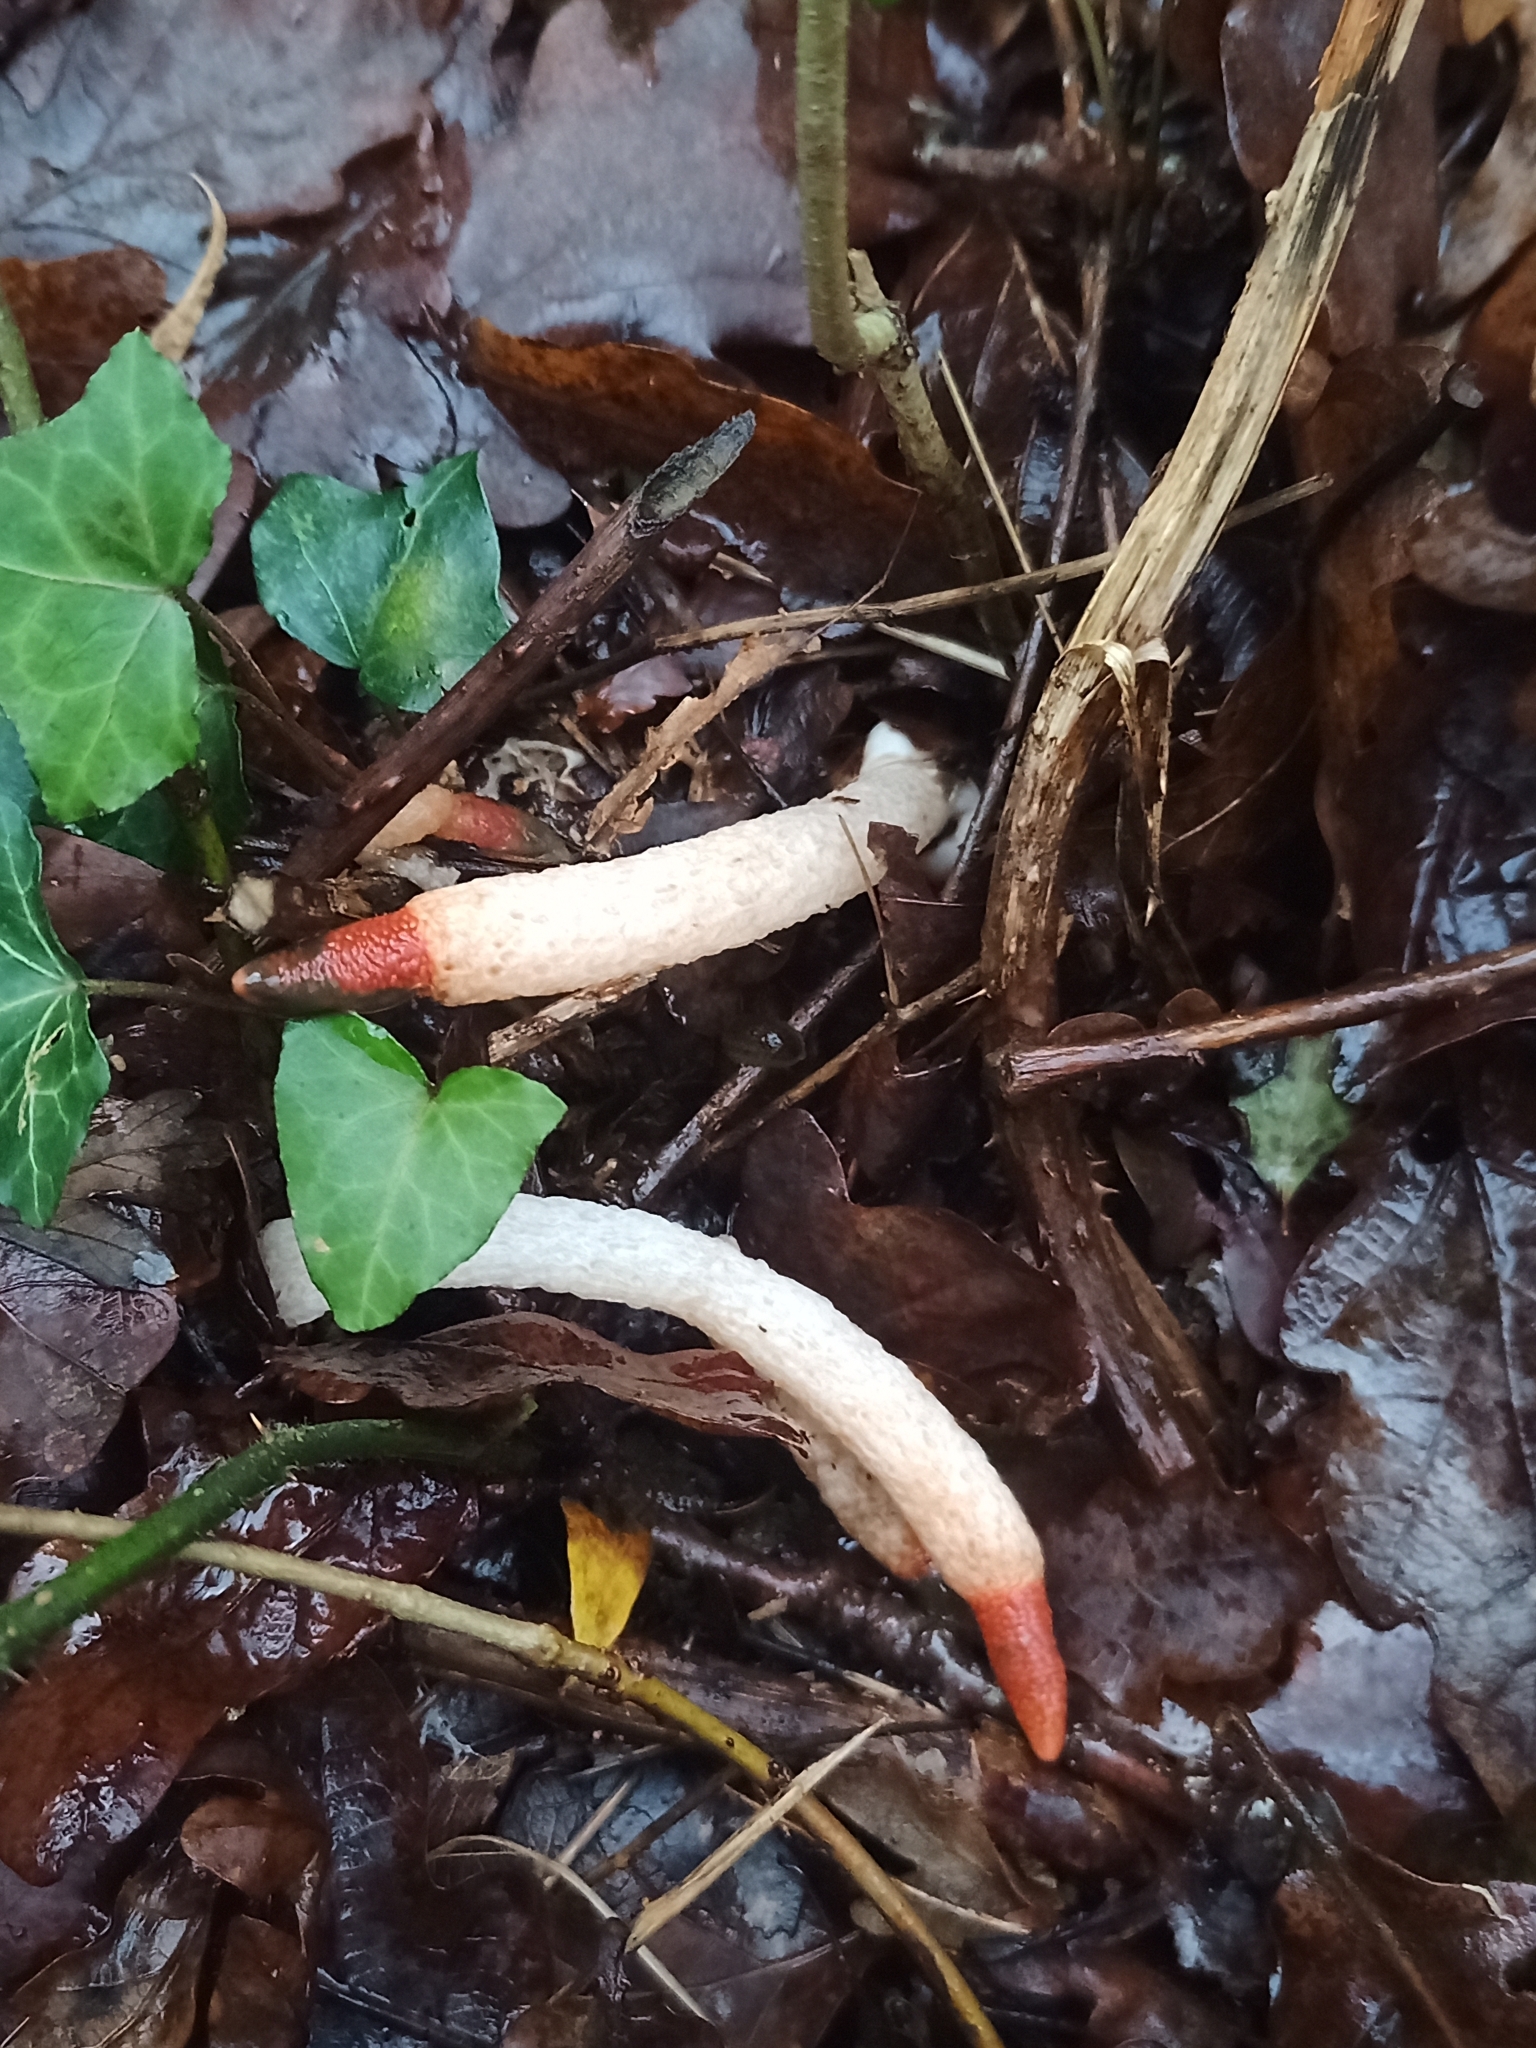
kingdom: Fungi
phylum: Basidiomycota
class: Agaricomycetes
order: Phallales
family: Phallaceae
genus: Mutinus
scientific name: Mutinus caninus
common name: Dog stinkhorn
